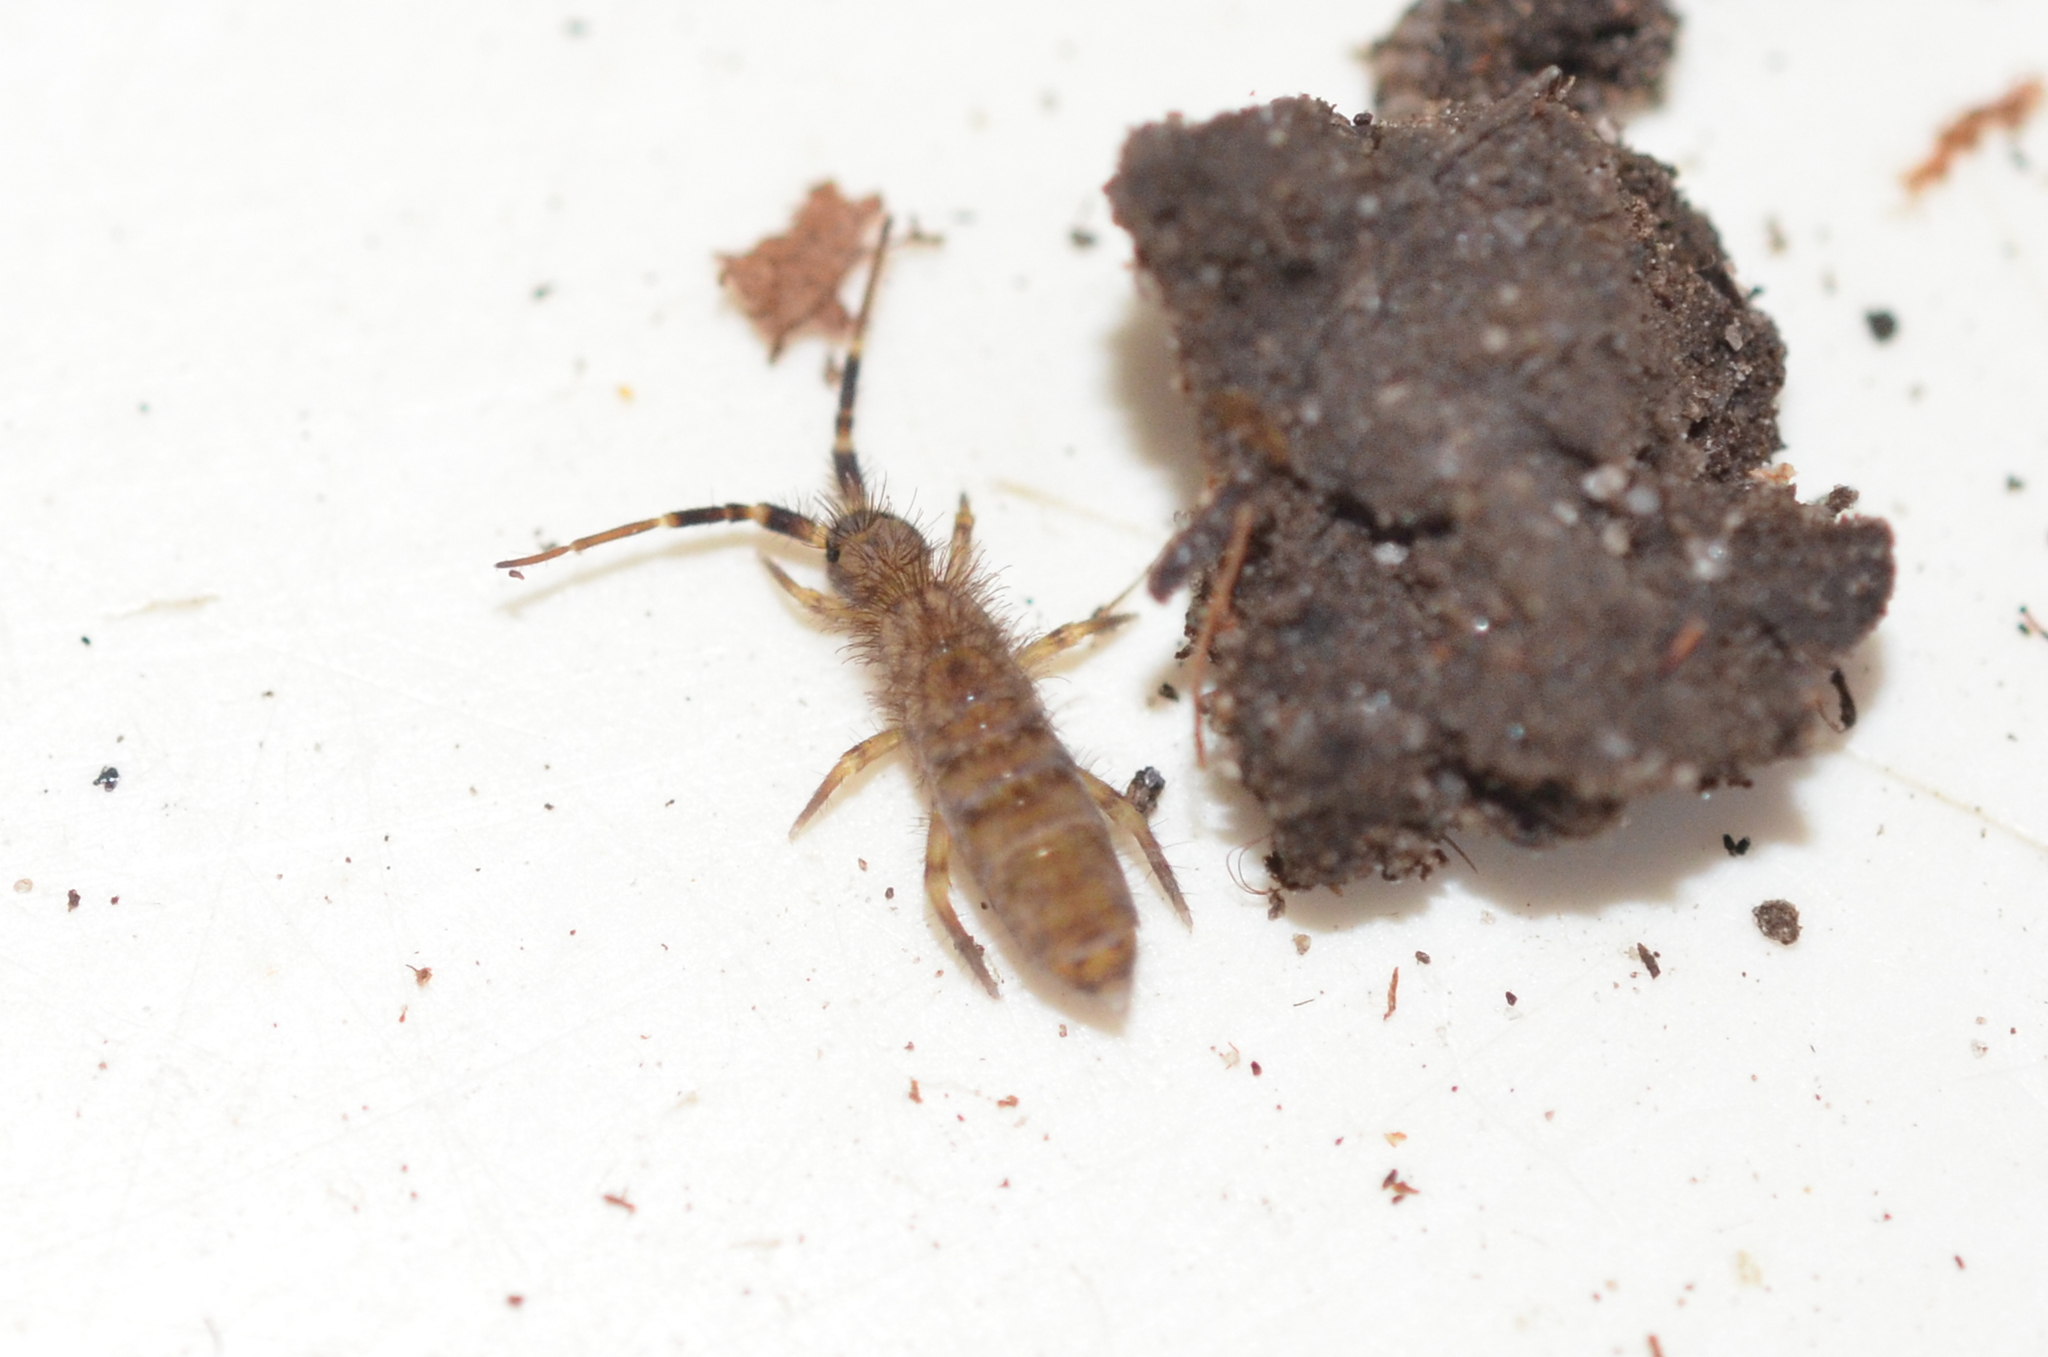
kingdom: Animalia
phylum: Arthropoda
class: Collembola
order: Entomobryomorpha
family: Orchesellidae
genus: Orchesella
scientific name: Orchesella villosa
